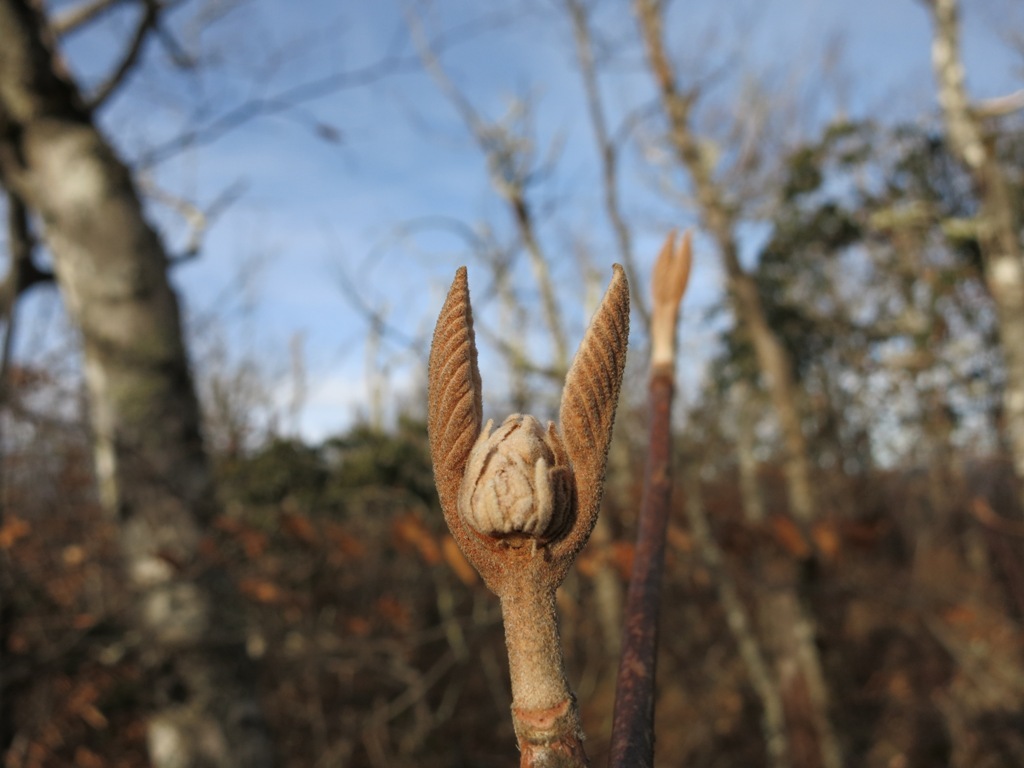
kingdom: Plantae
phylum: Tracheophyta
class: Magnoliopsida
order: Dipsacales
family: Viburnaceae
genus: Viburnum
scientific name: Viburnum lantanoides
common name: Hobblebush
